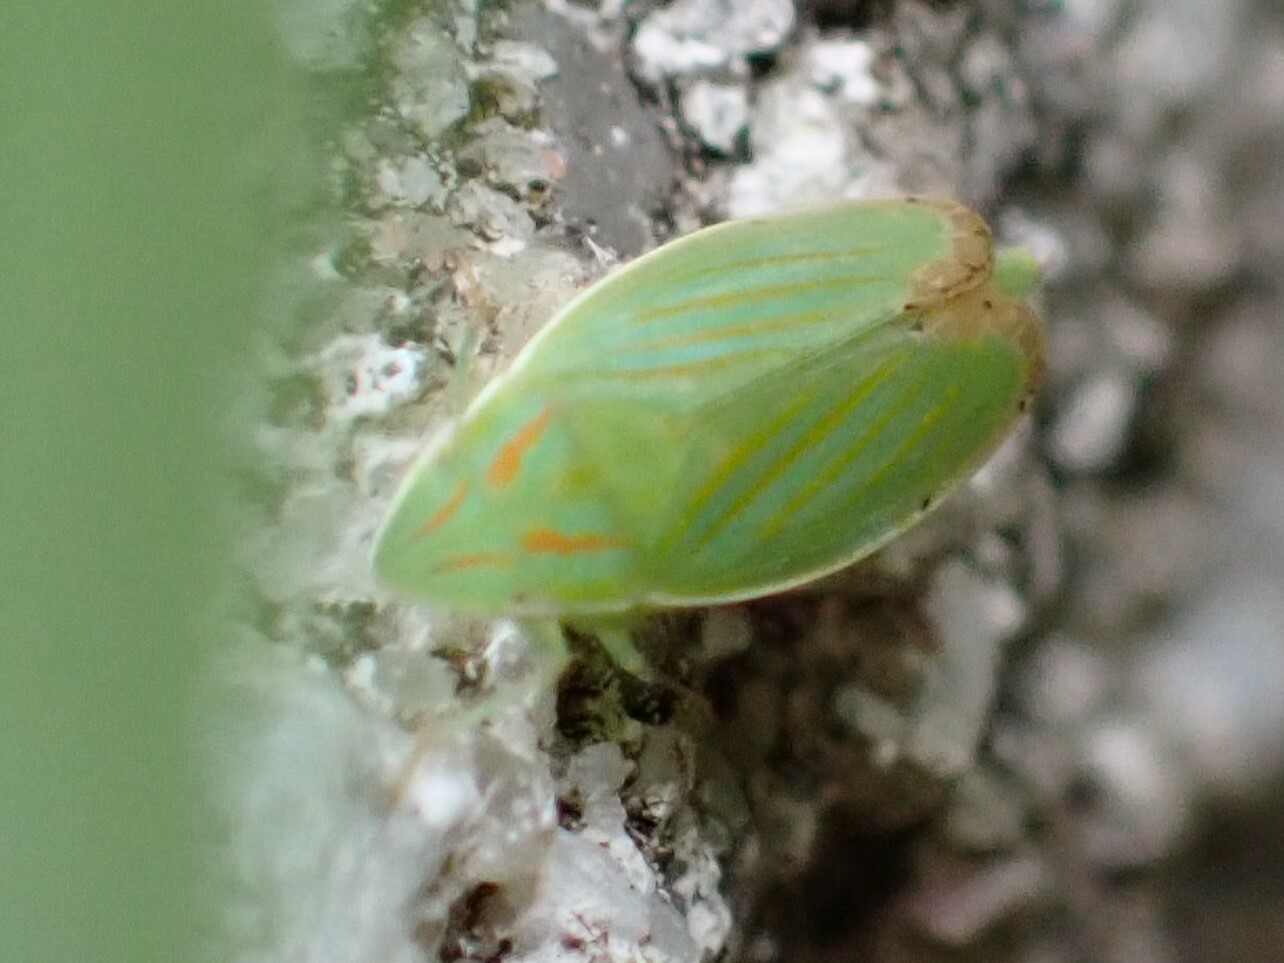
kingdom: Animalia
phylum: Arthropoda
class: Insecta
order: Hemiptera
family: Cicadellidae
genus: Spangbergiella
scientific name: Spangbergiella quadripunctata
